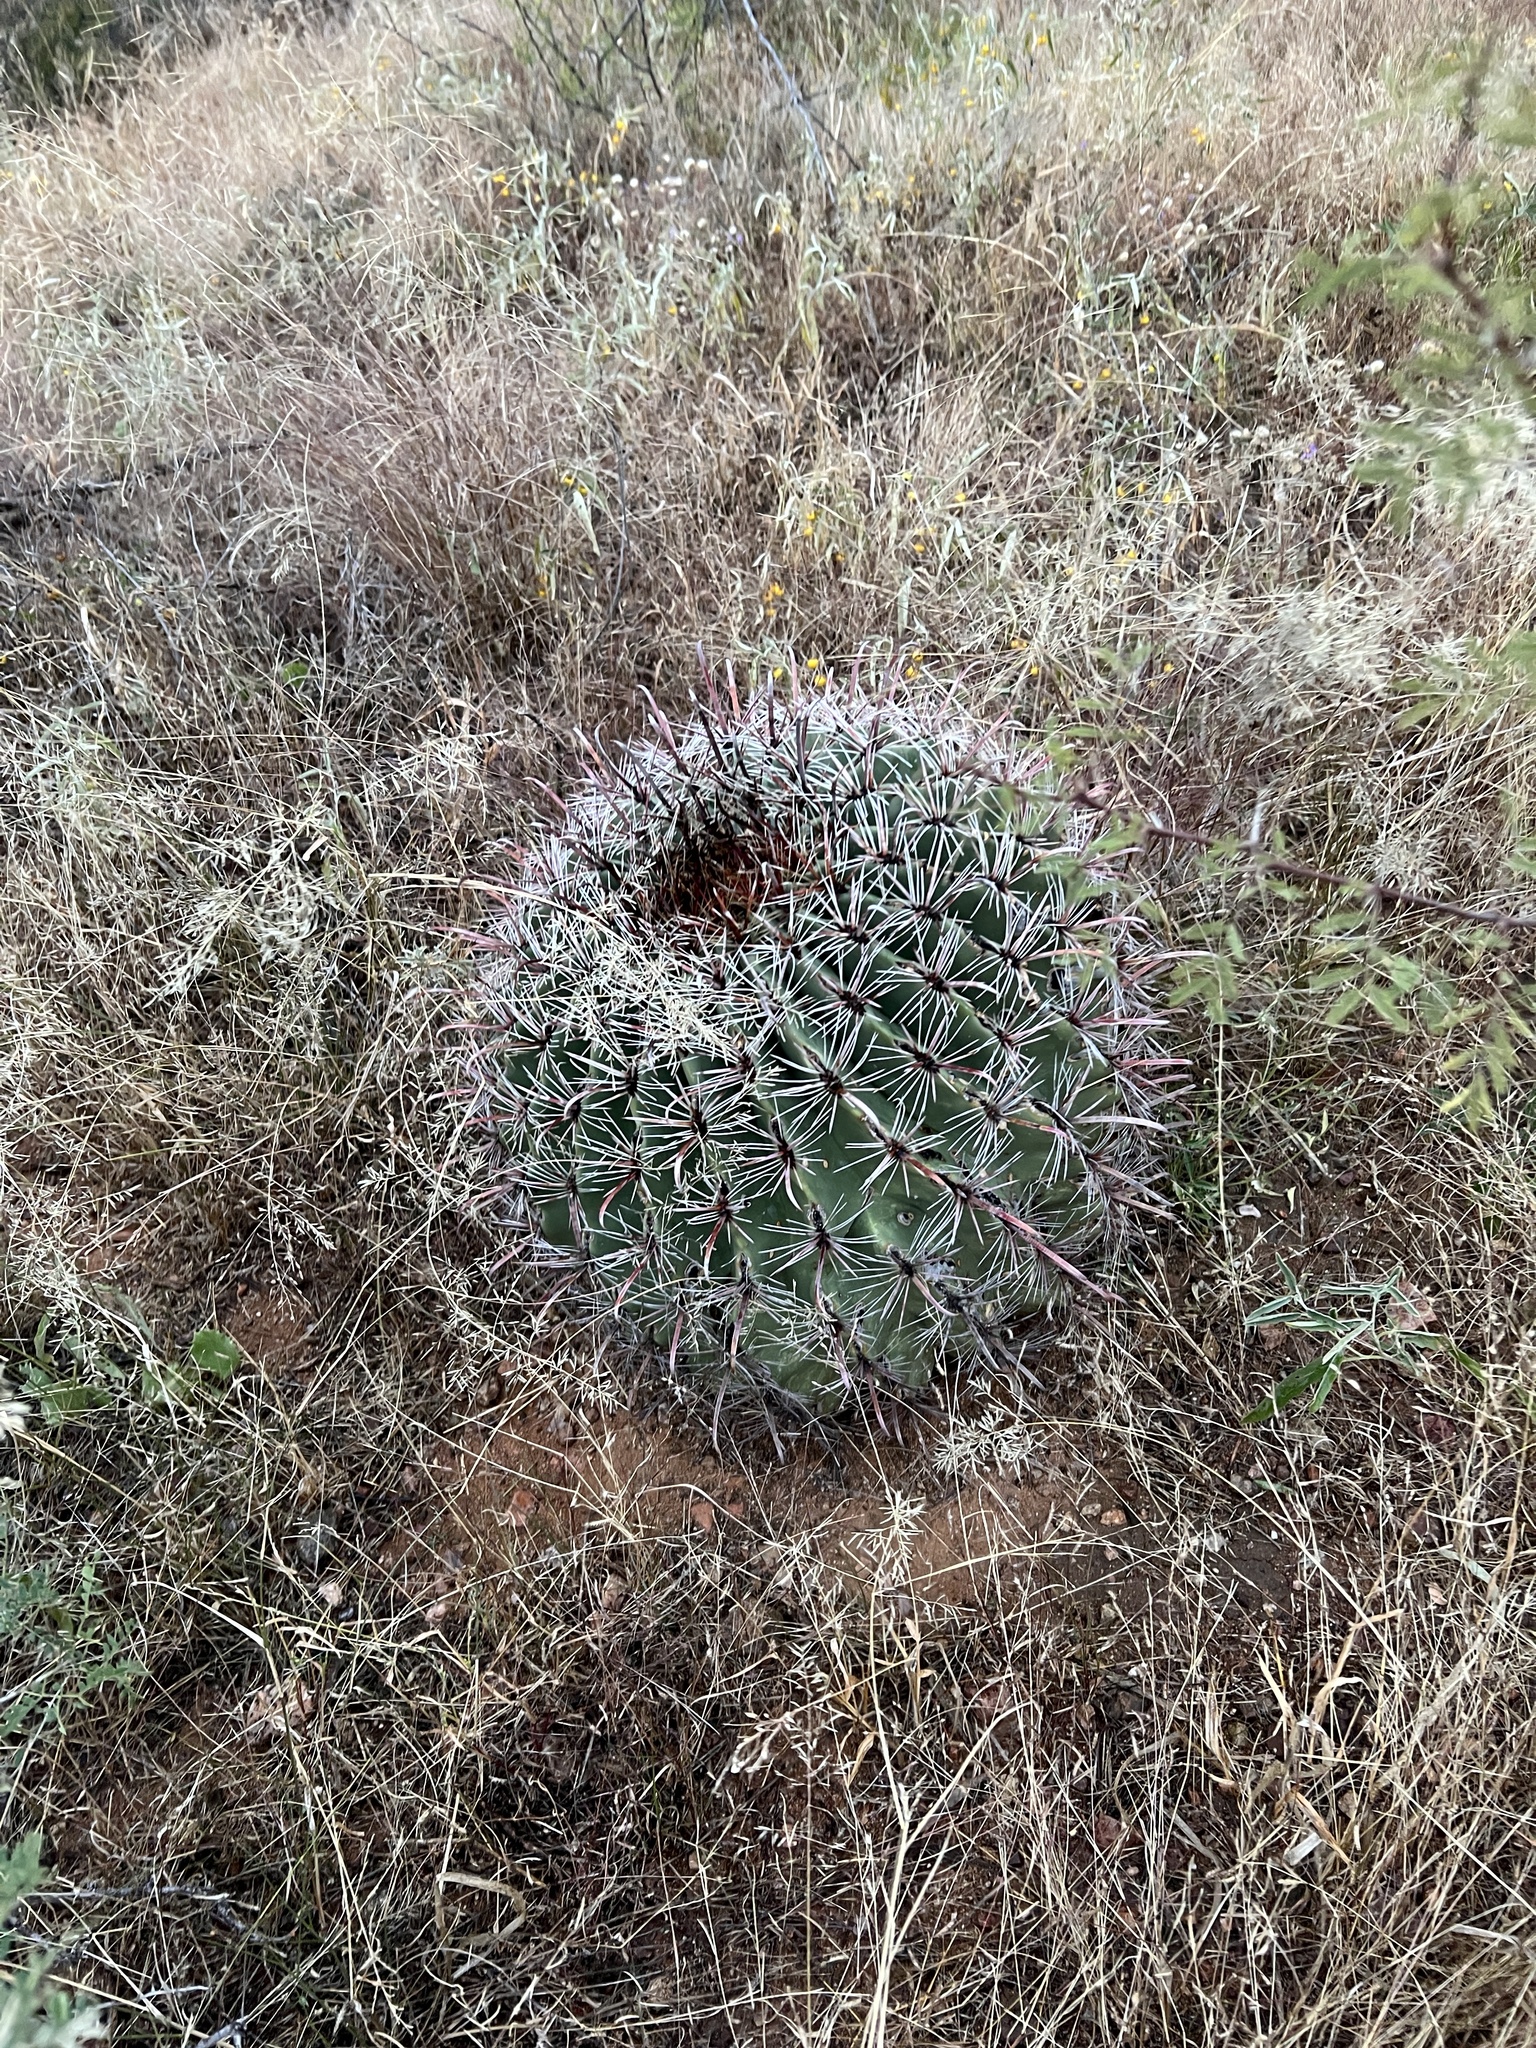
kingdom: Plantae
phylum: Tracheophyta
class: Magnoliopsida
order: Caryophyllales
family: Cactaceae
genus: Ferocactus
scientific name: Ferocactus wislizeni
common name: Candy barrel cactus
